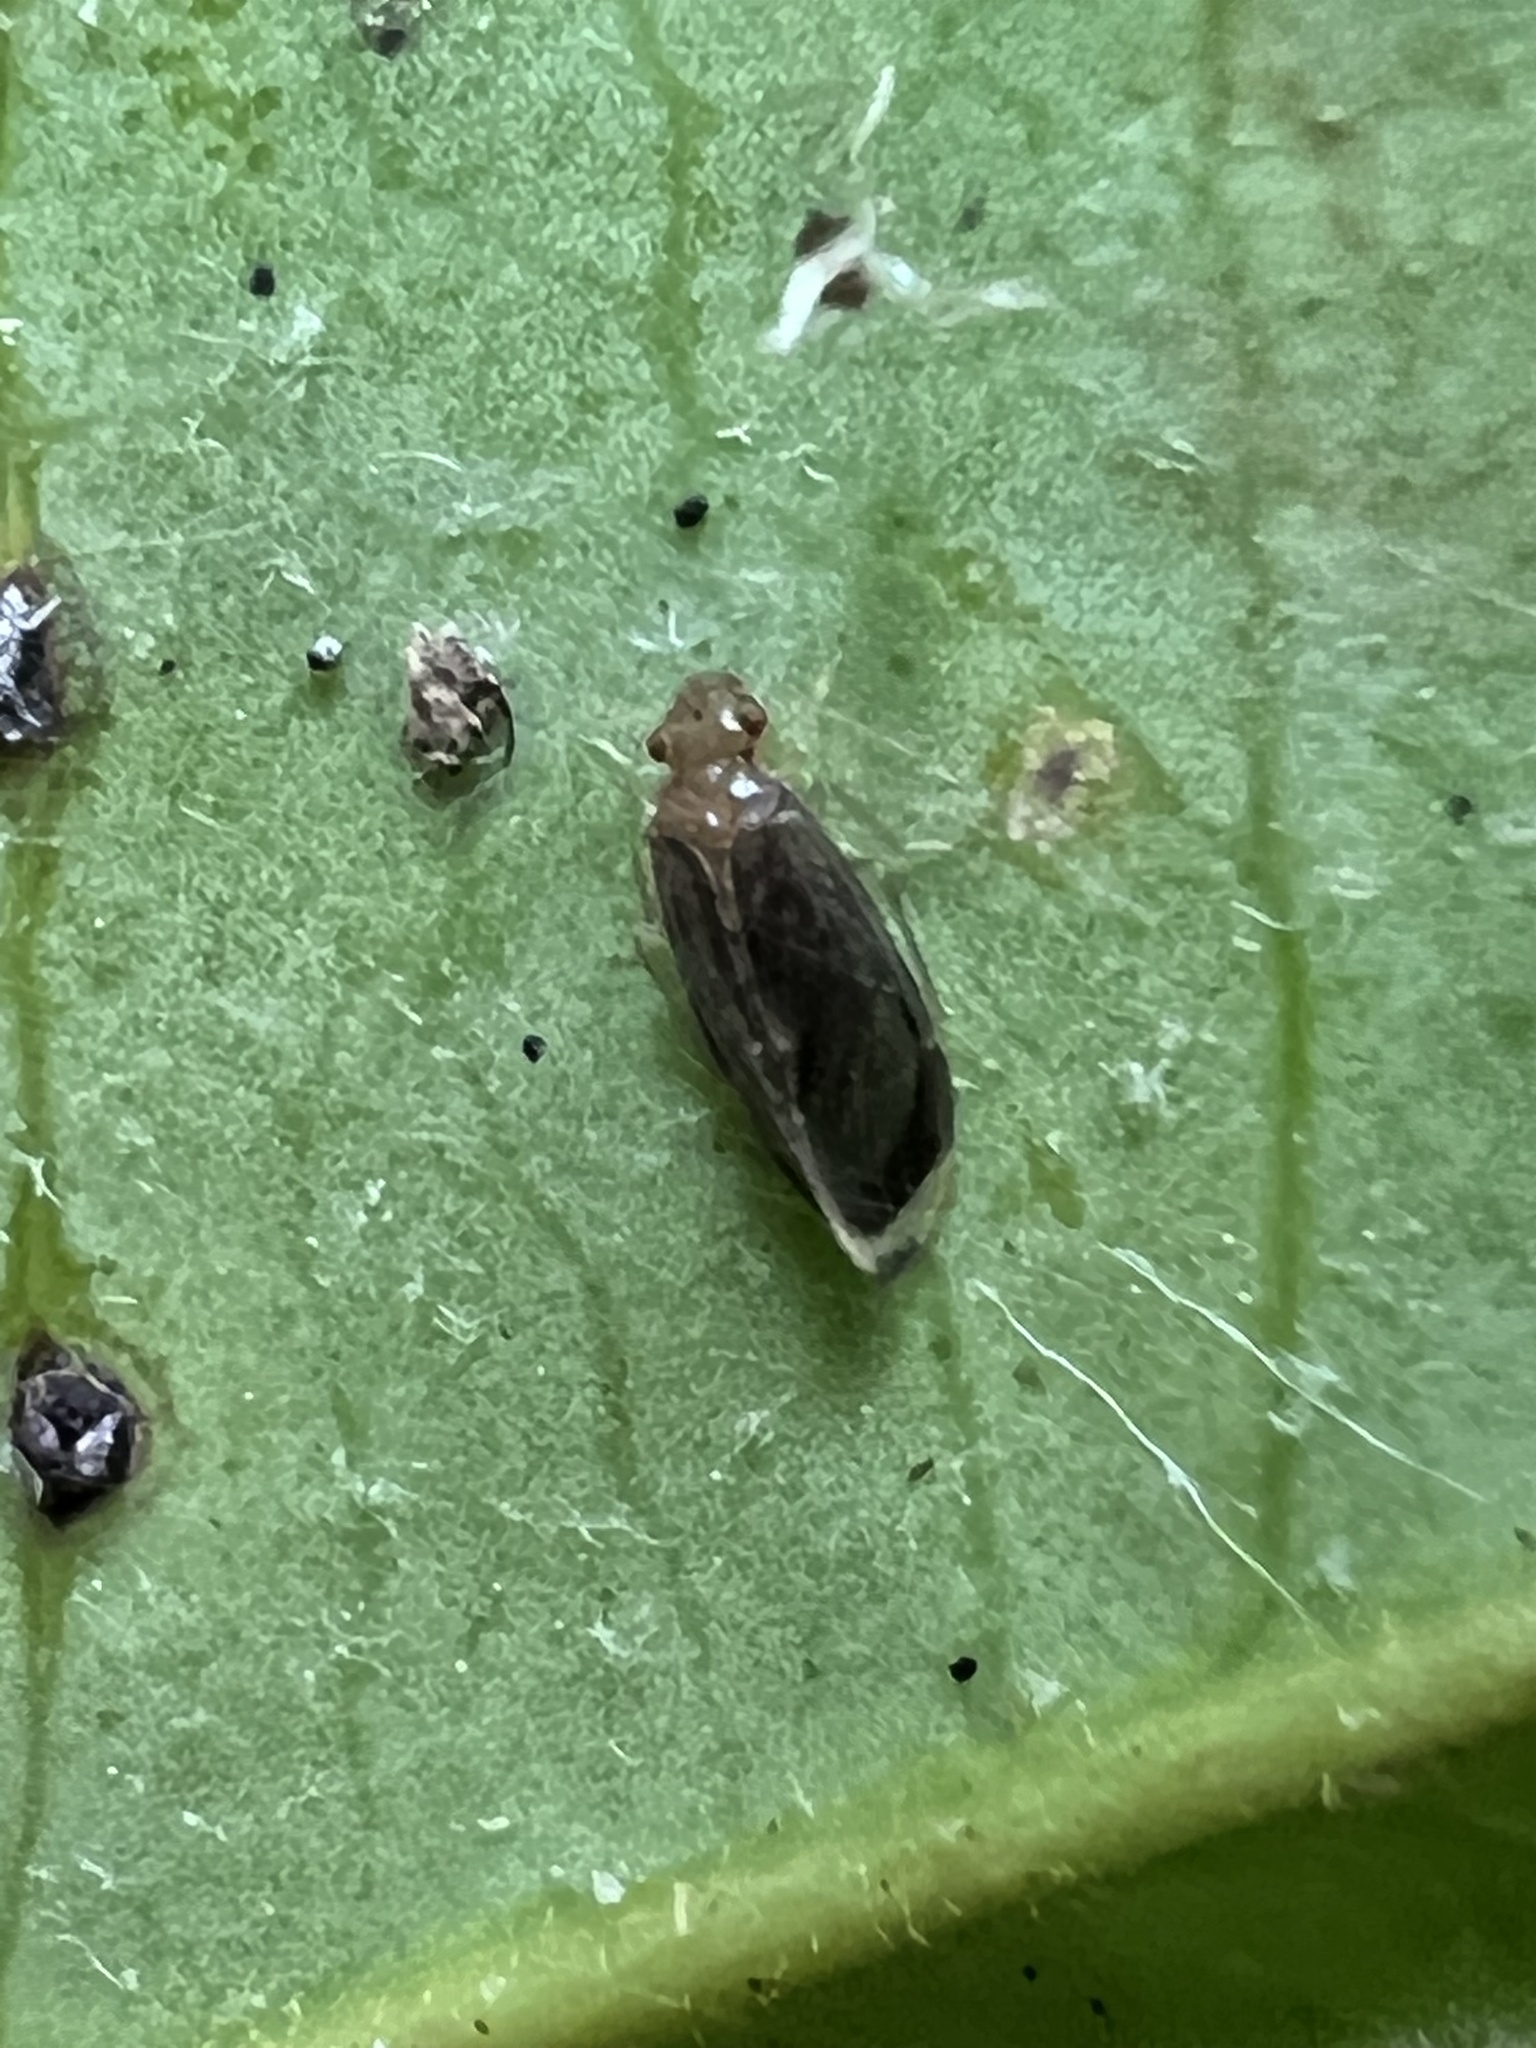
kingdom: Animalia
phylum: Arthropoda
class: Insecta
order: Psocodea
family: Amphipsocidae
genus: Polypsocus
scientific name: Polypsocus corruptus
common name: Corrupt barklouse
